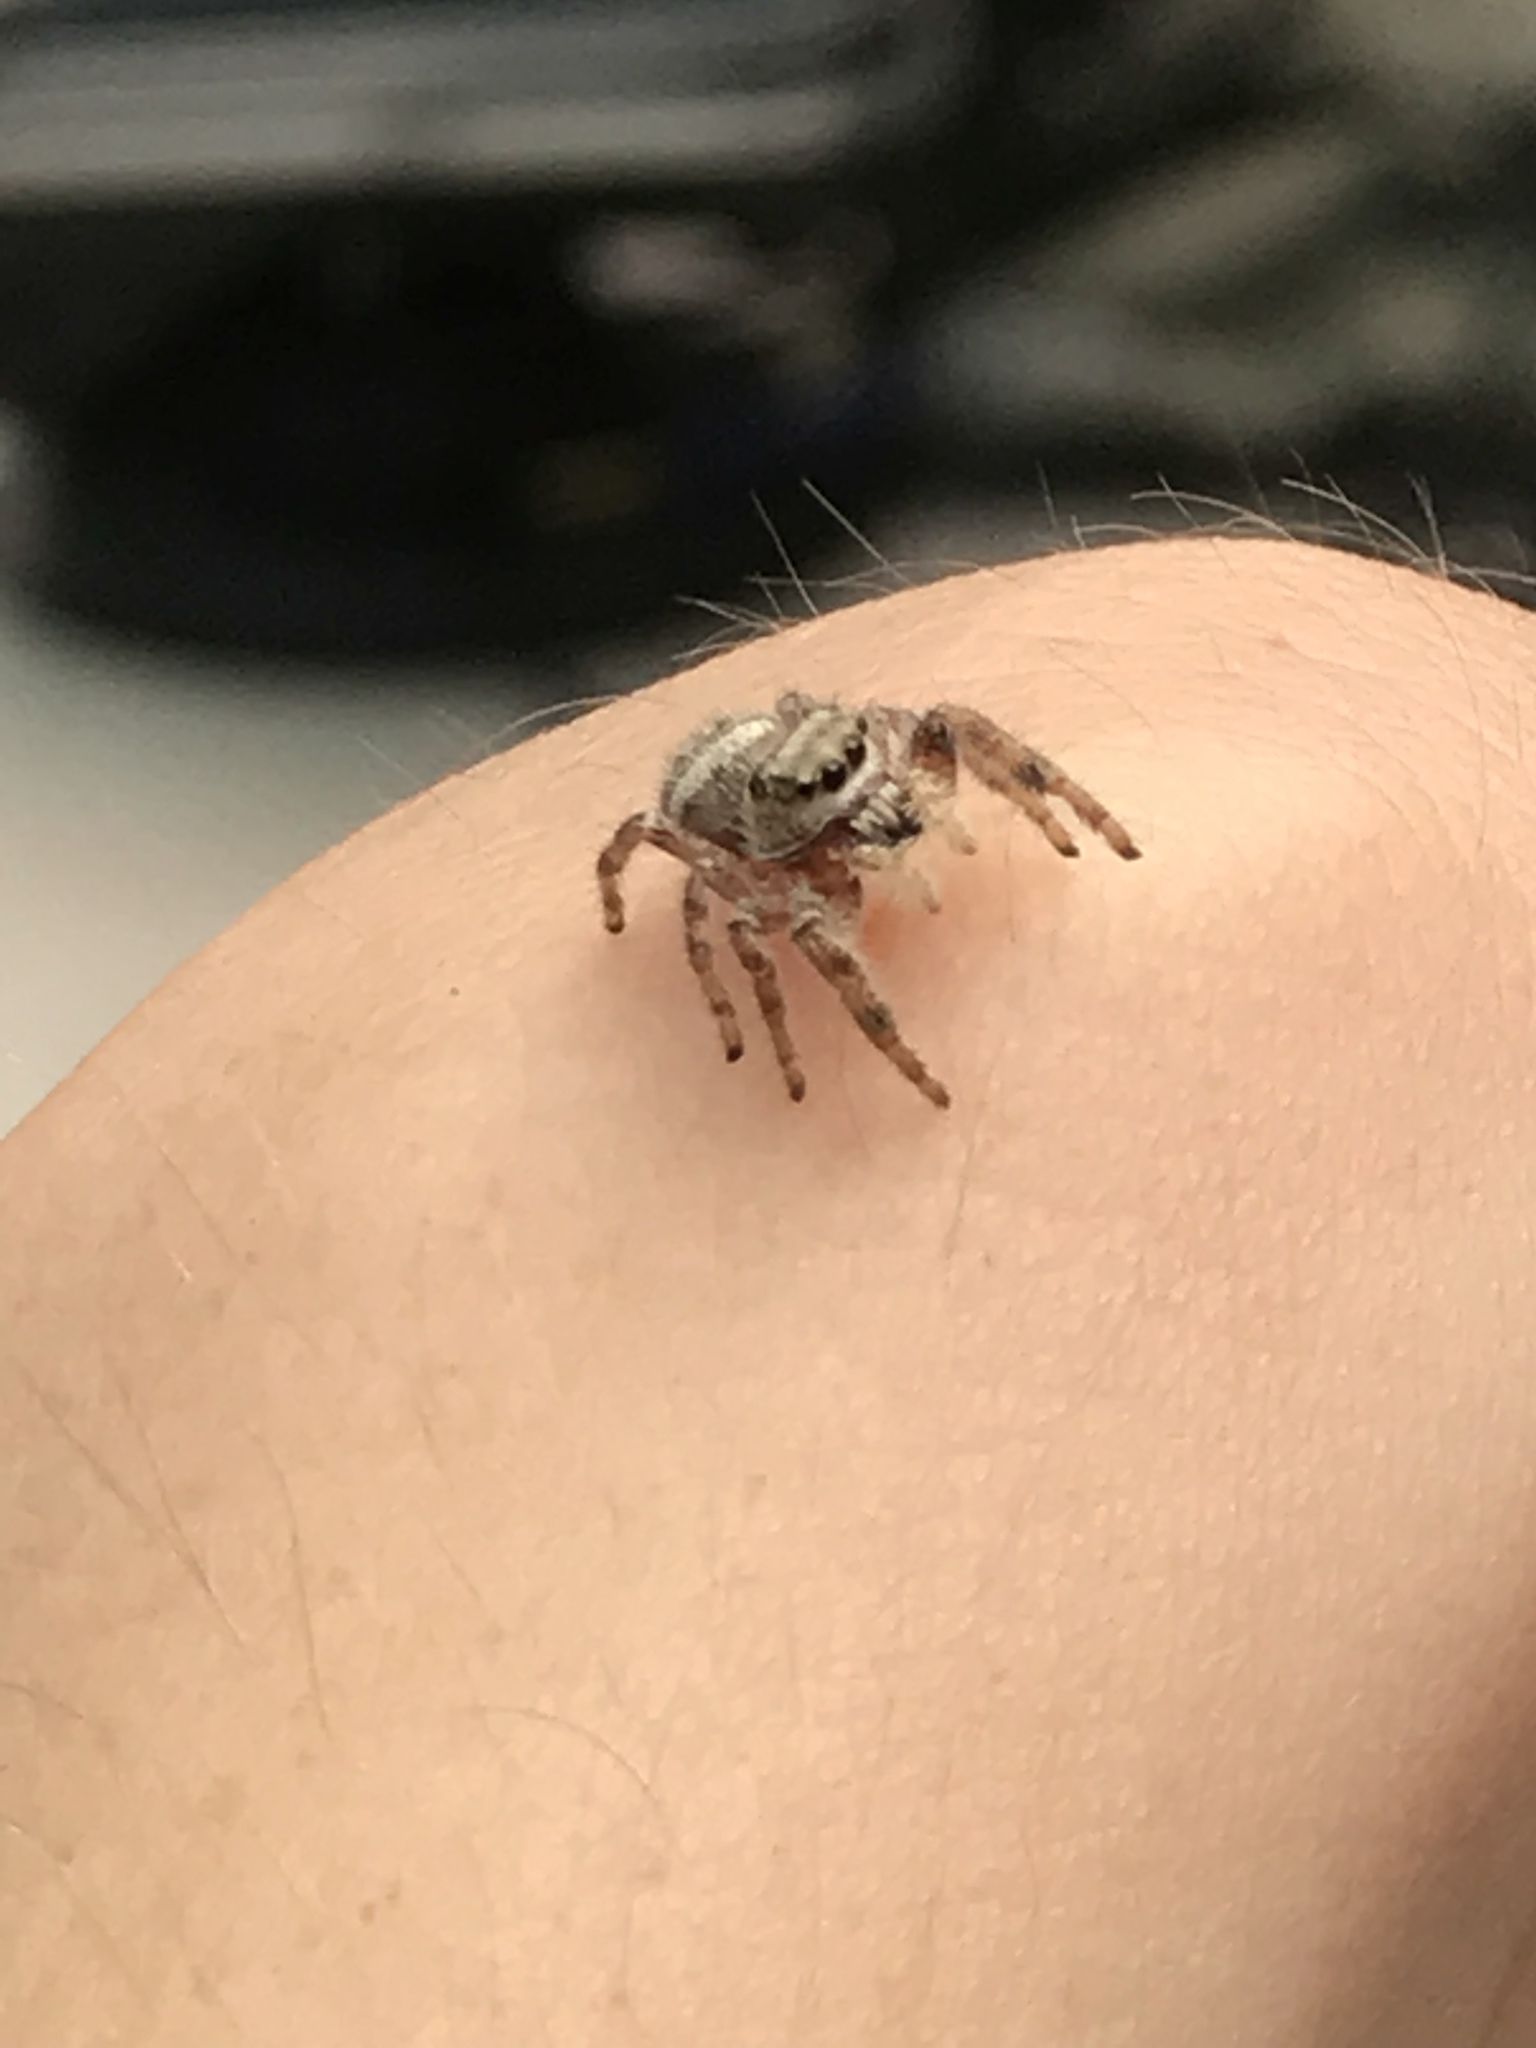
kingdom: Animalia
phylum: Arthropoda
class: Arachnida
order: Araneae
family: Salticidae
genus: Phidippus
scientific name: Phidippus clarus
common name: Brilliant jumping spider
